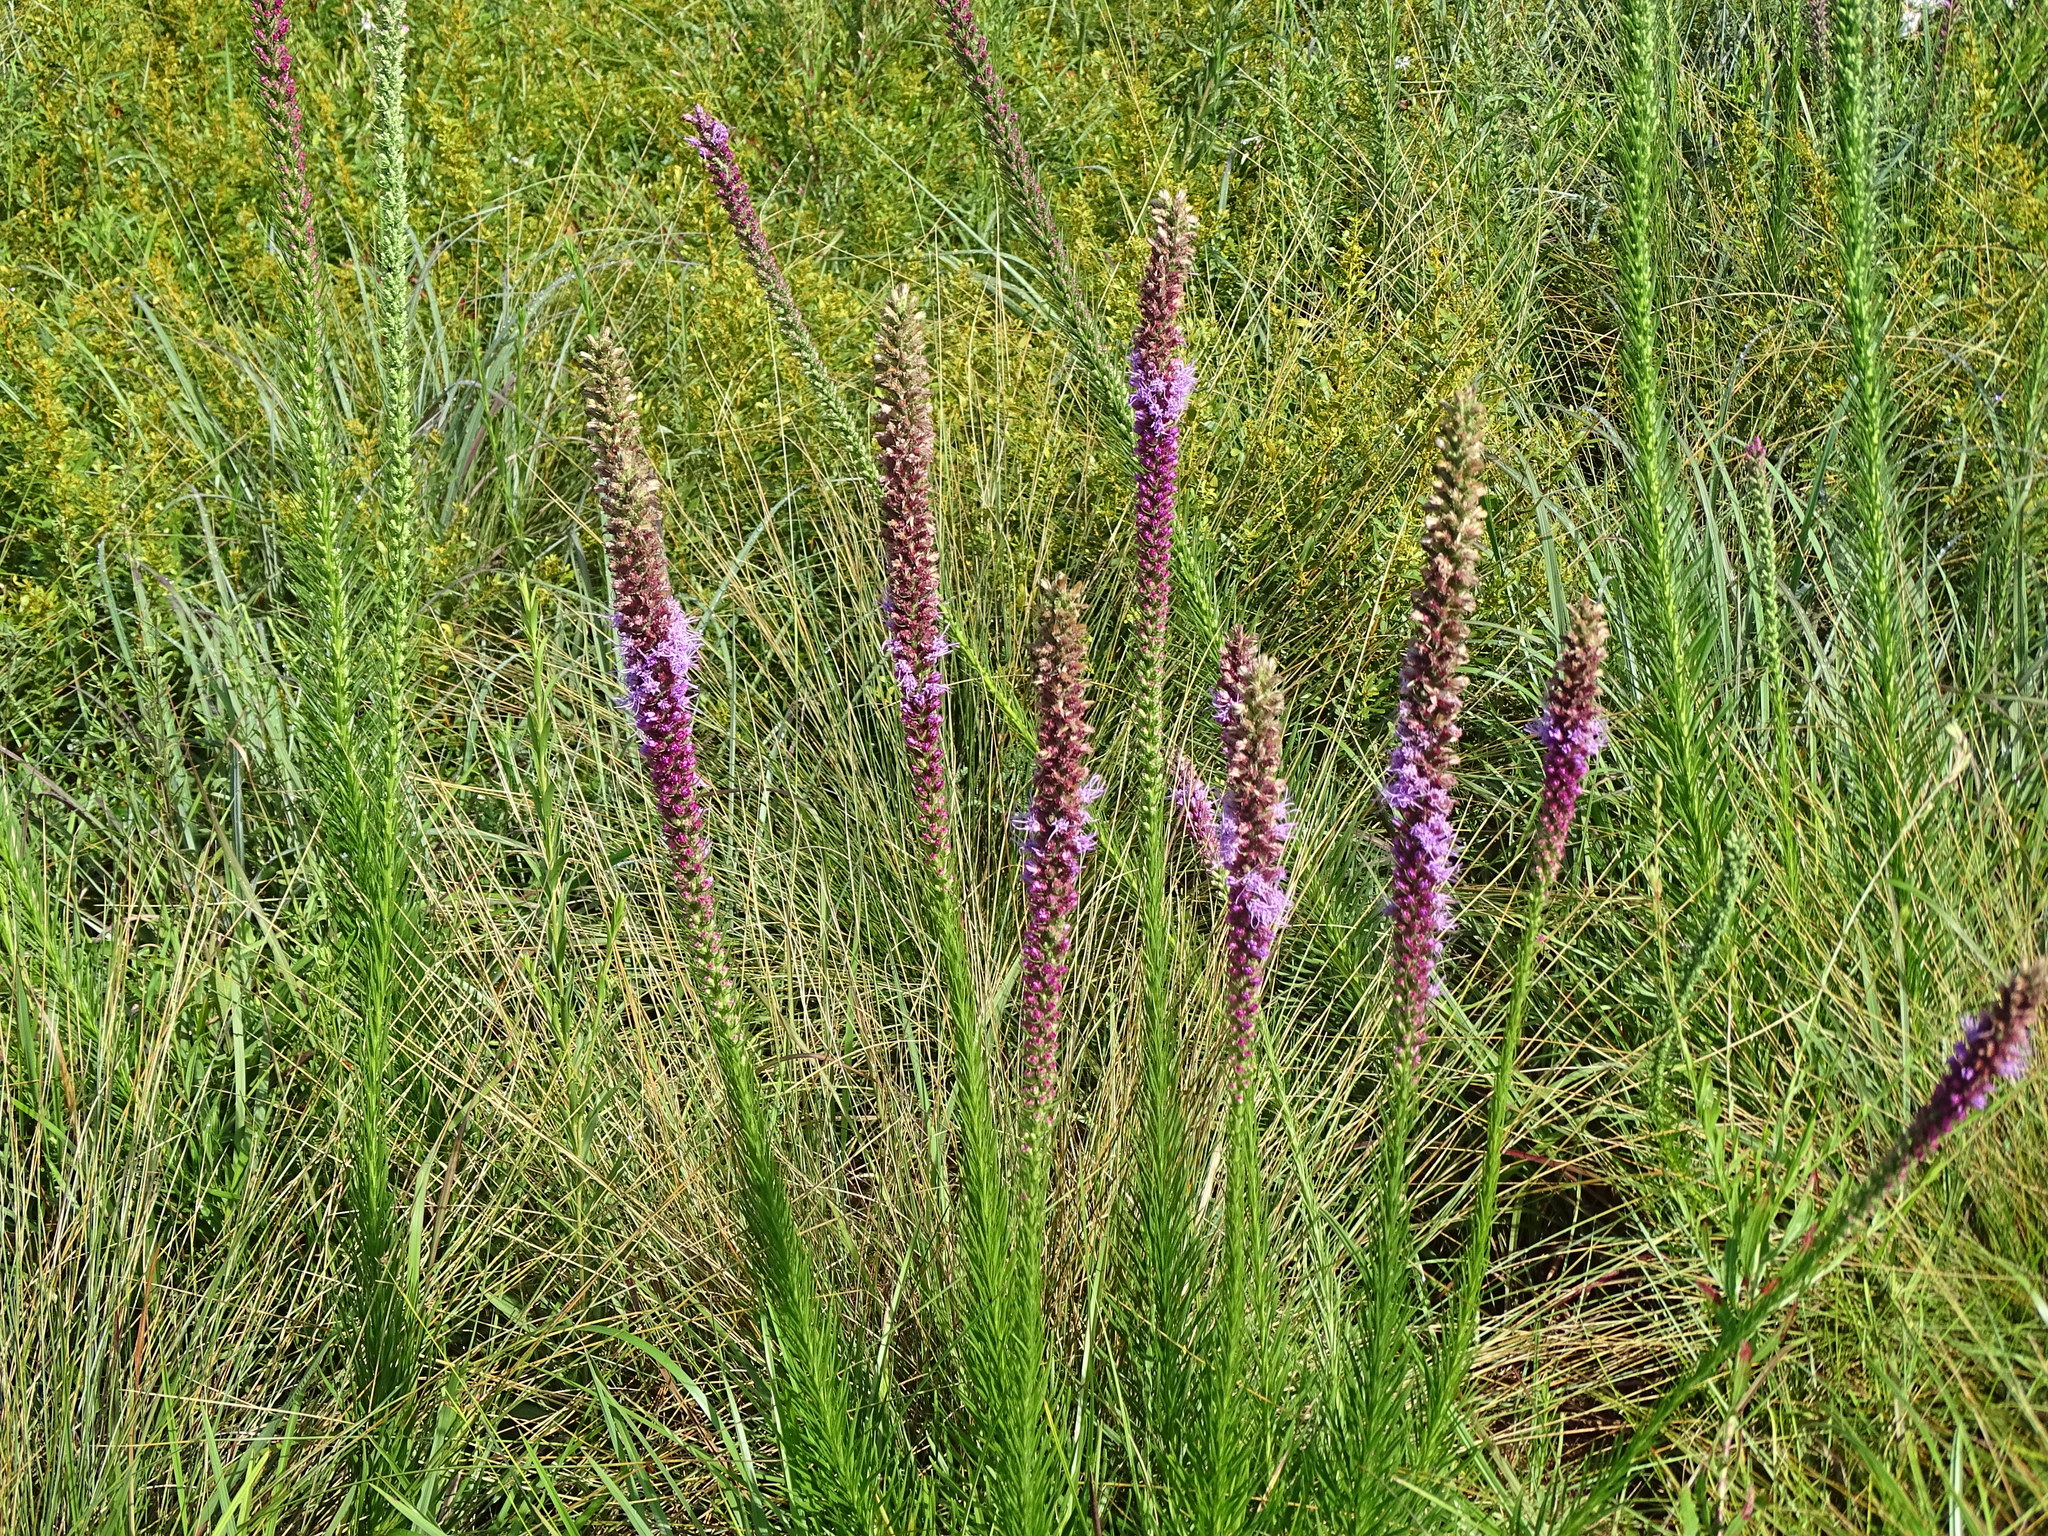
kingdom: Plantae
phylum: Tracheophyta
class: Magnoliopsida
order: Asterales
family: Asteraceae
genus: Liatris
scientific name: Liatris pycnostachya
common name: Cattail gayfeather
